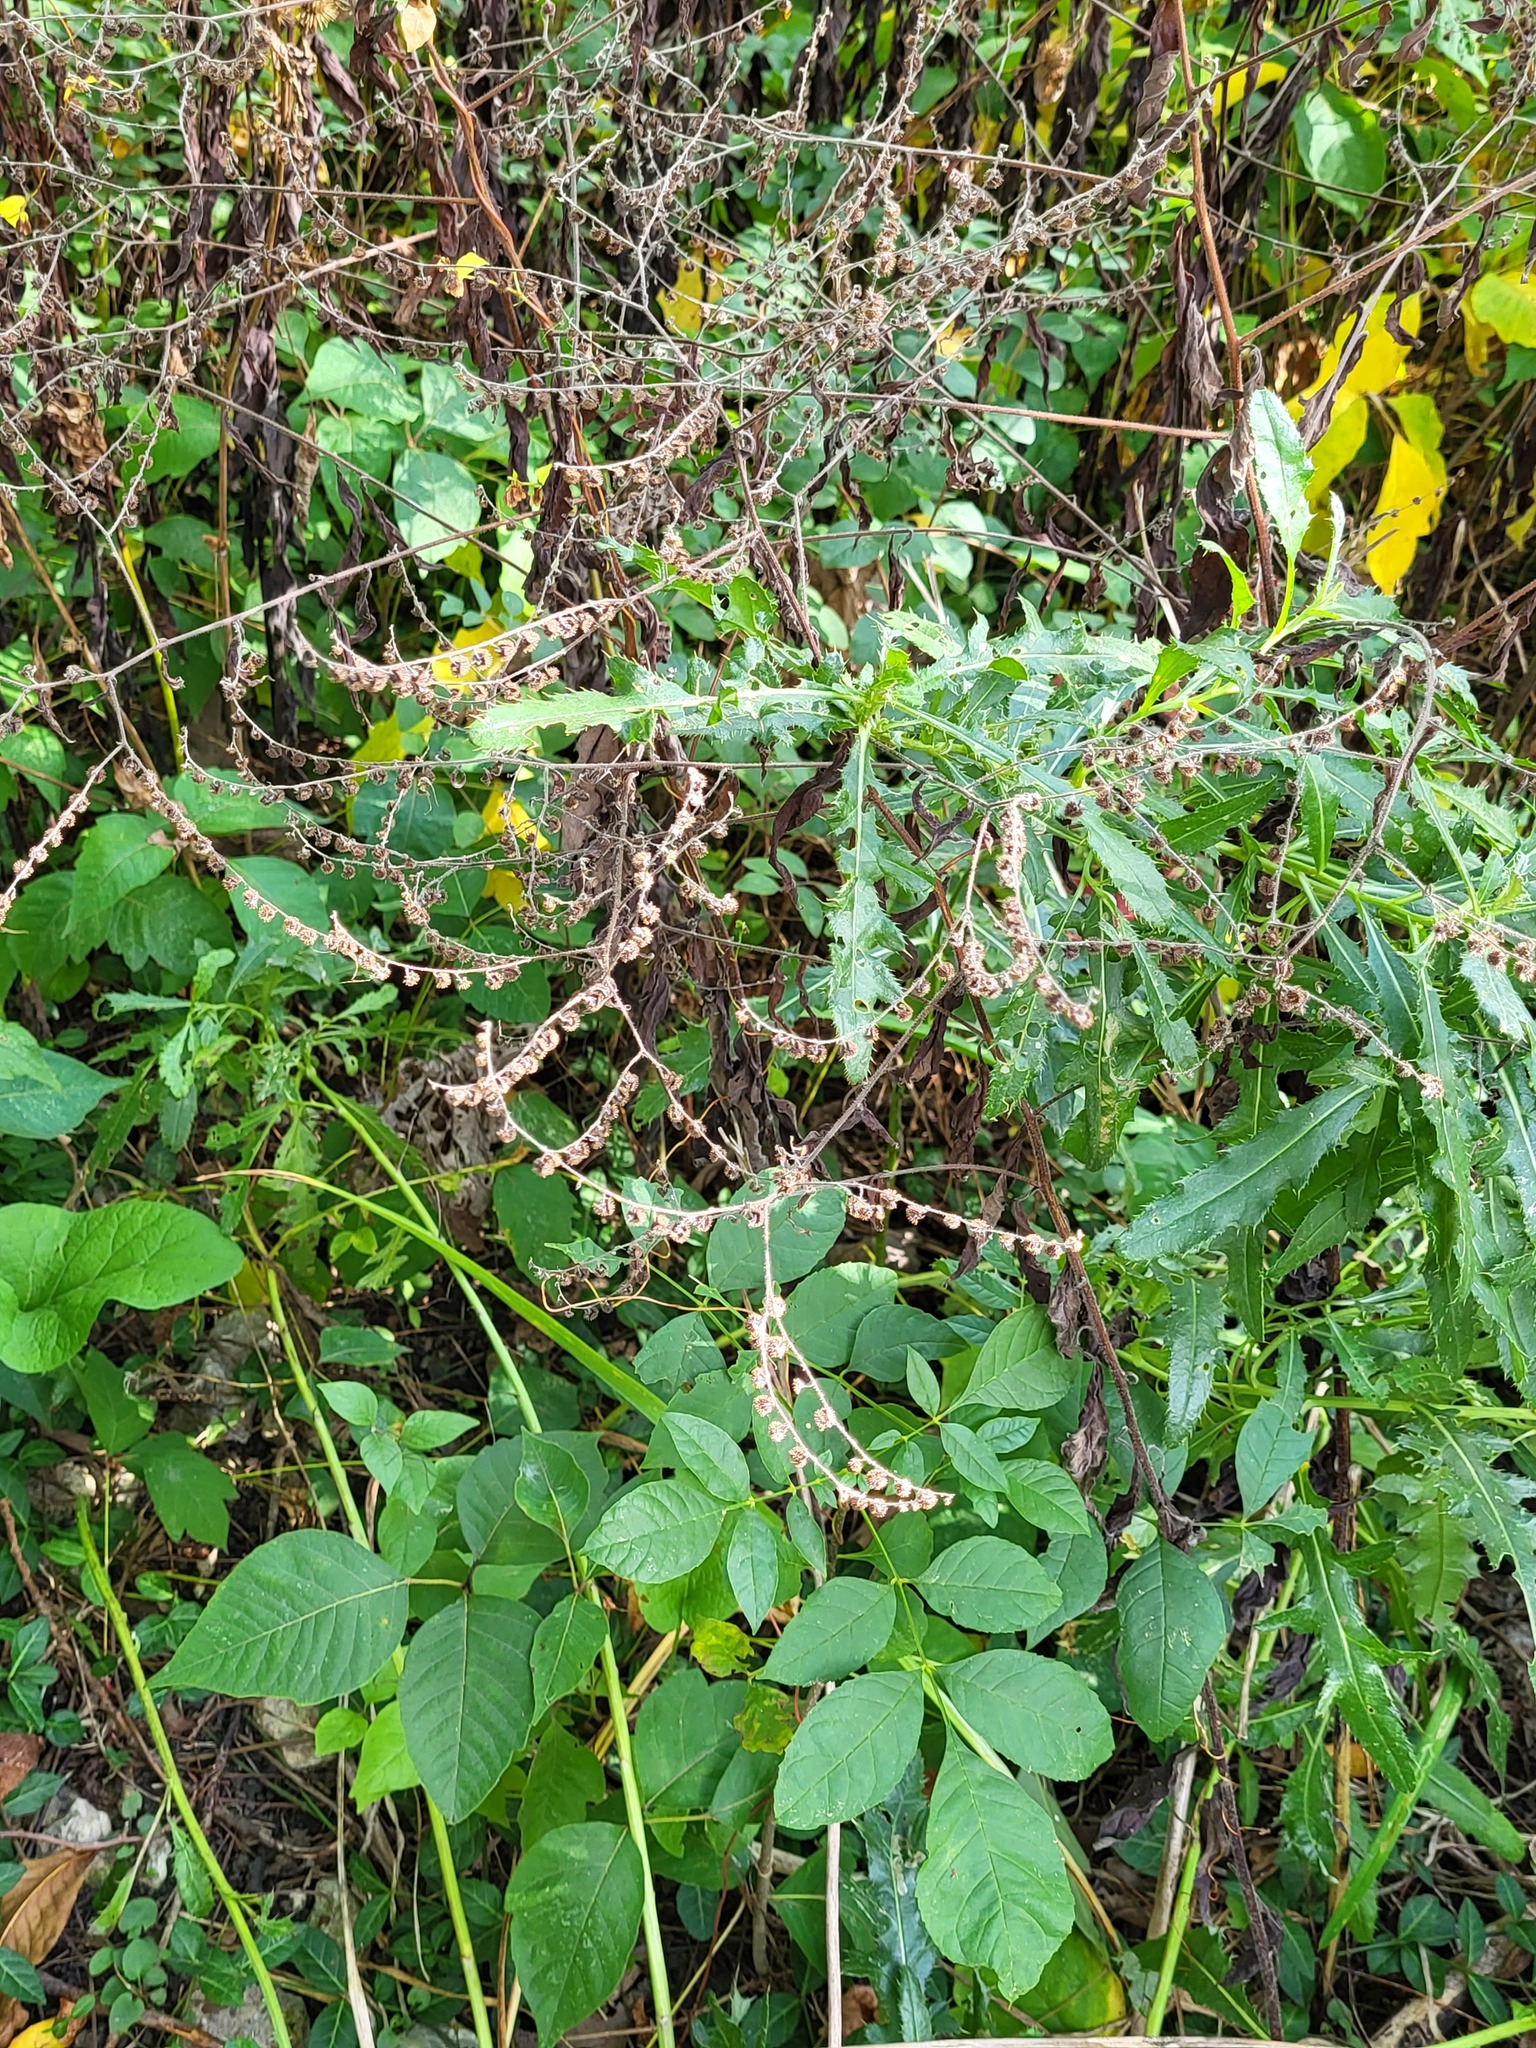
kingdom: Plantae
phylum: Tracheophyta
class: Magnoliopsida
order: Boraginales
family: Boraginaceae
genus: Hackelia
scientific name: Hackelia virginiana
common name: Beggar's-lice
